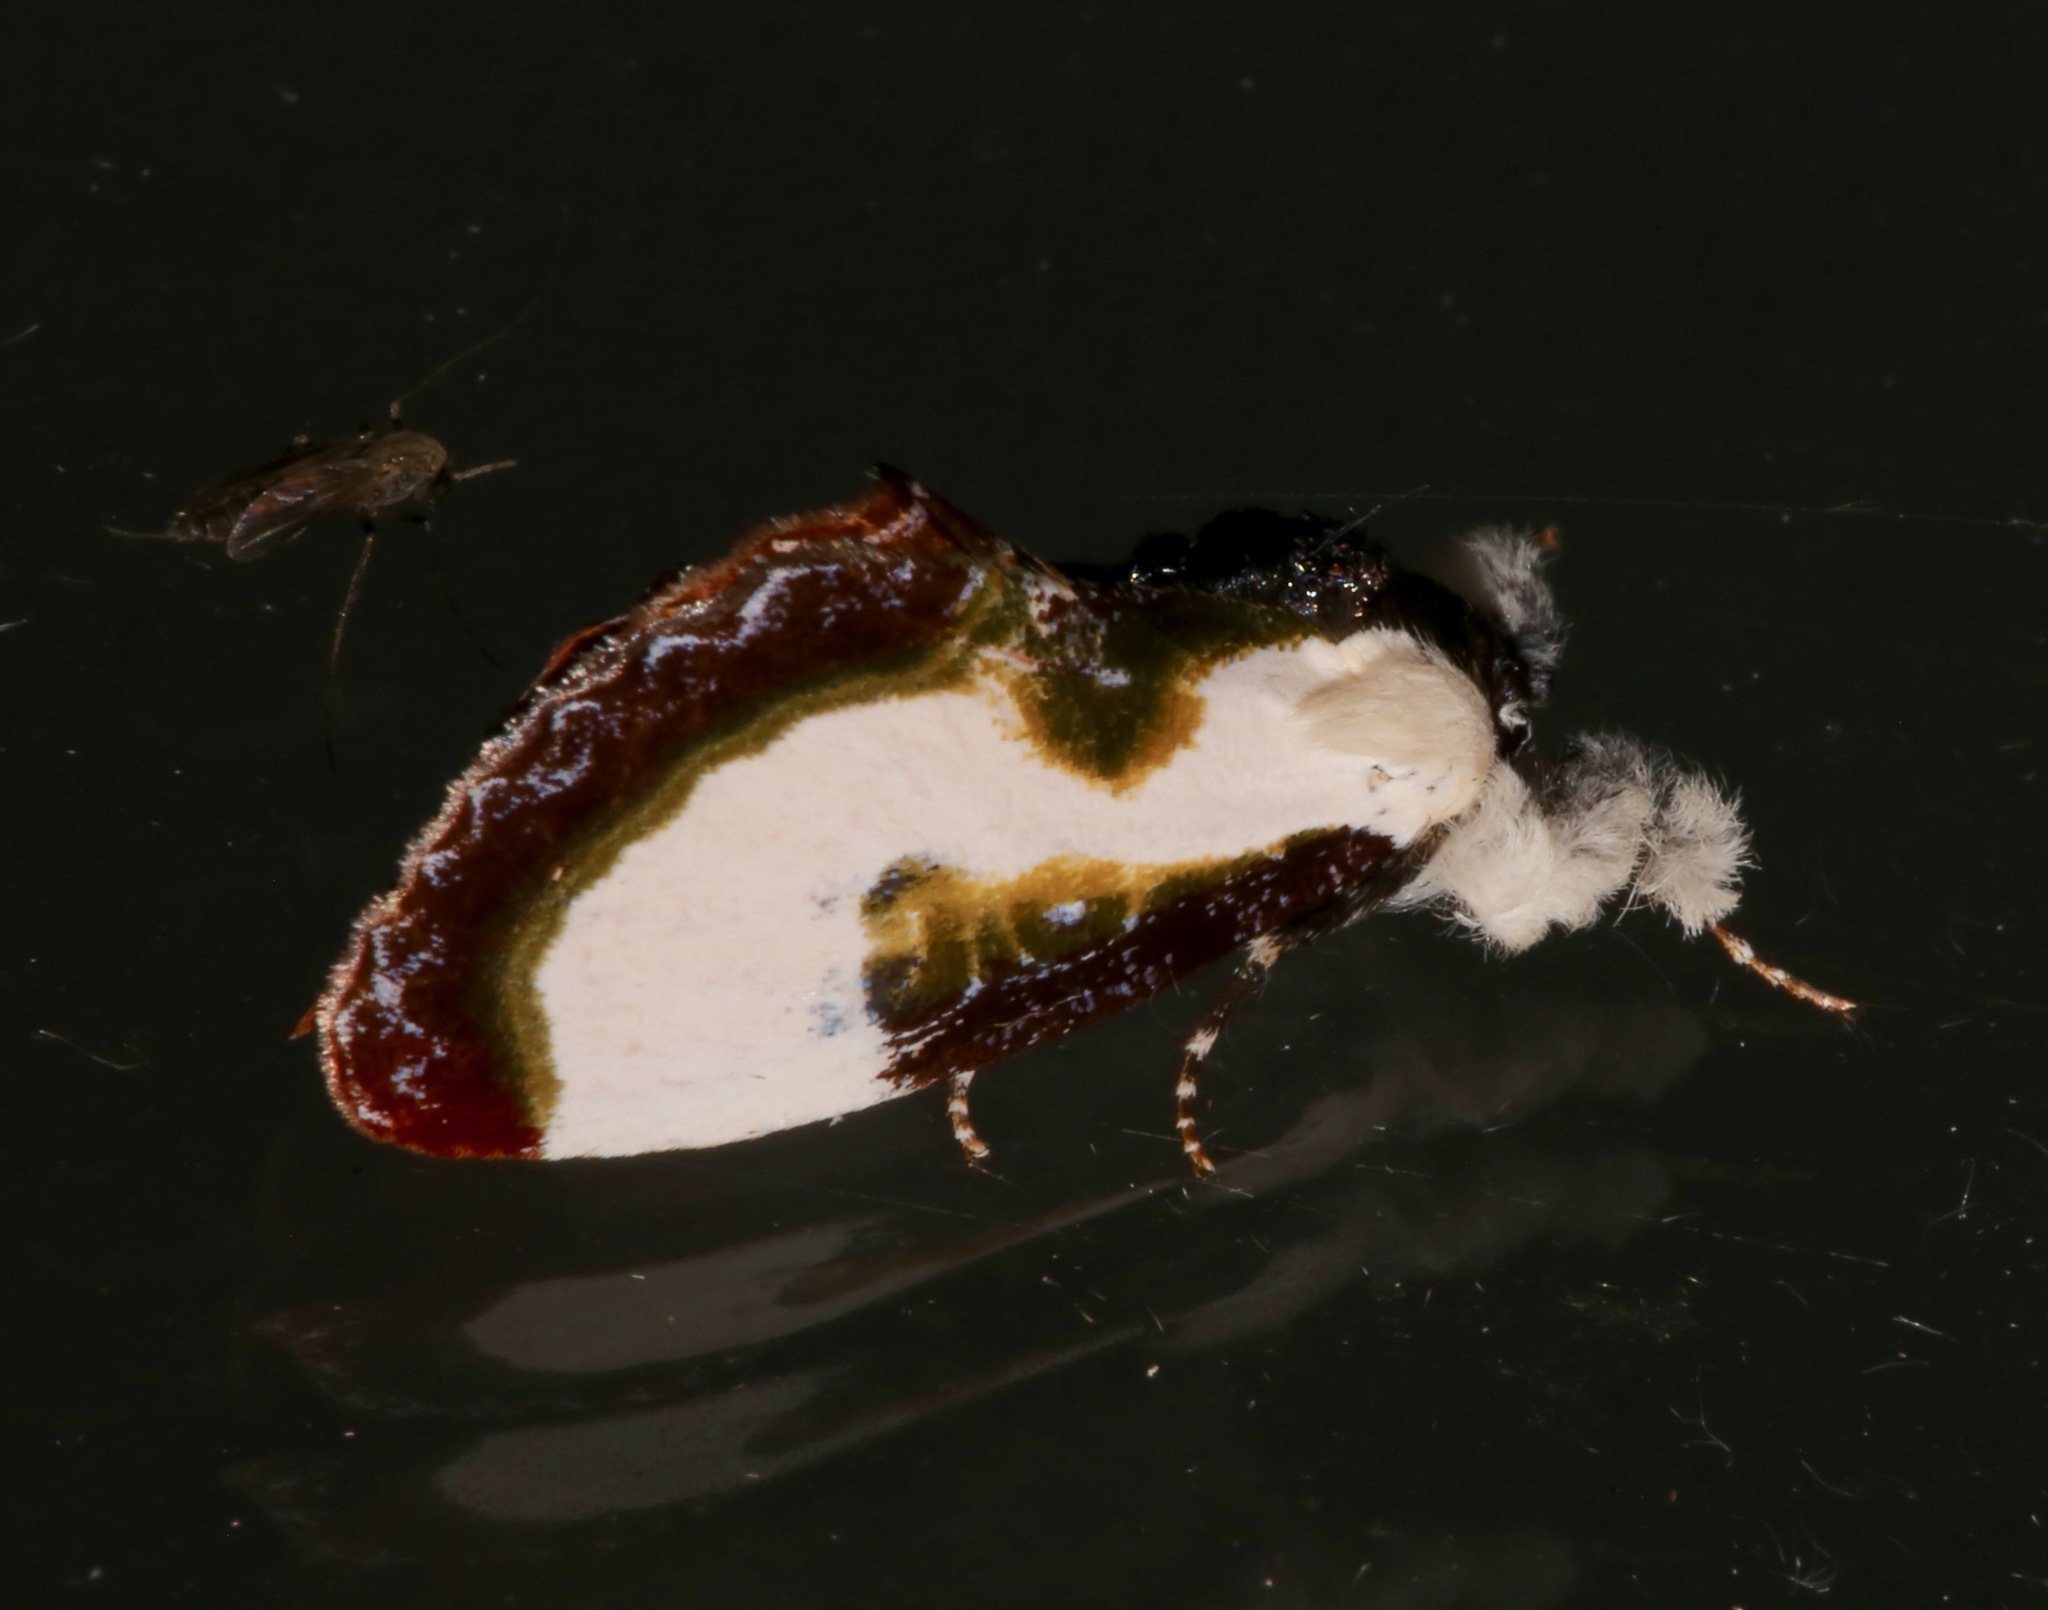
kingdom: Animalia
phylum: Arthropoda
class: Insecta
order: Lepidoptera
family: Noctuidae
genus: Eudryas
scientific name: Eudryas grata
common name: Beautiful wood-nymph
